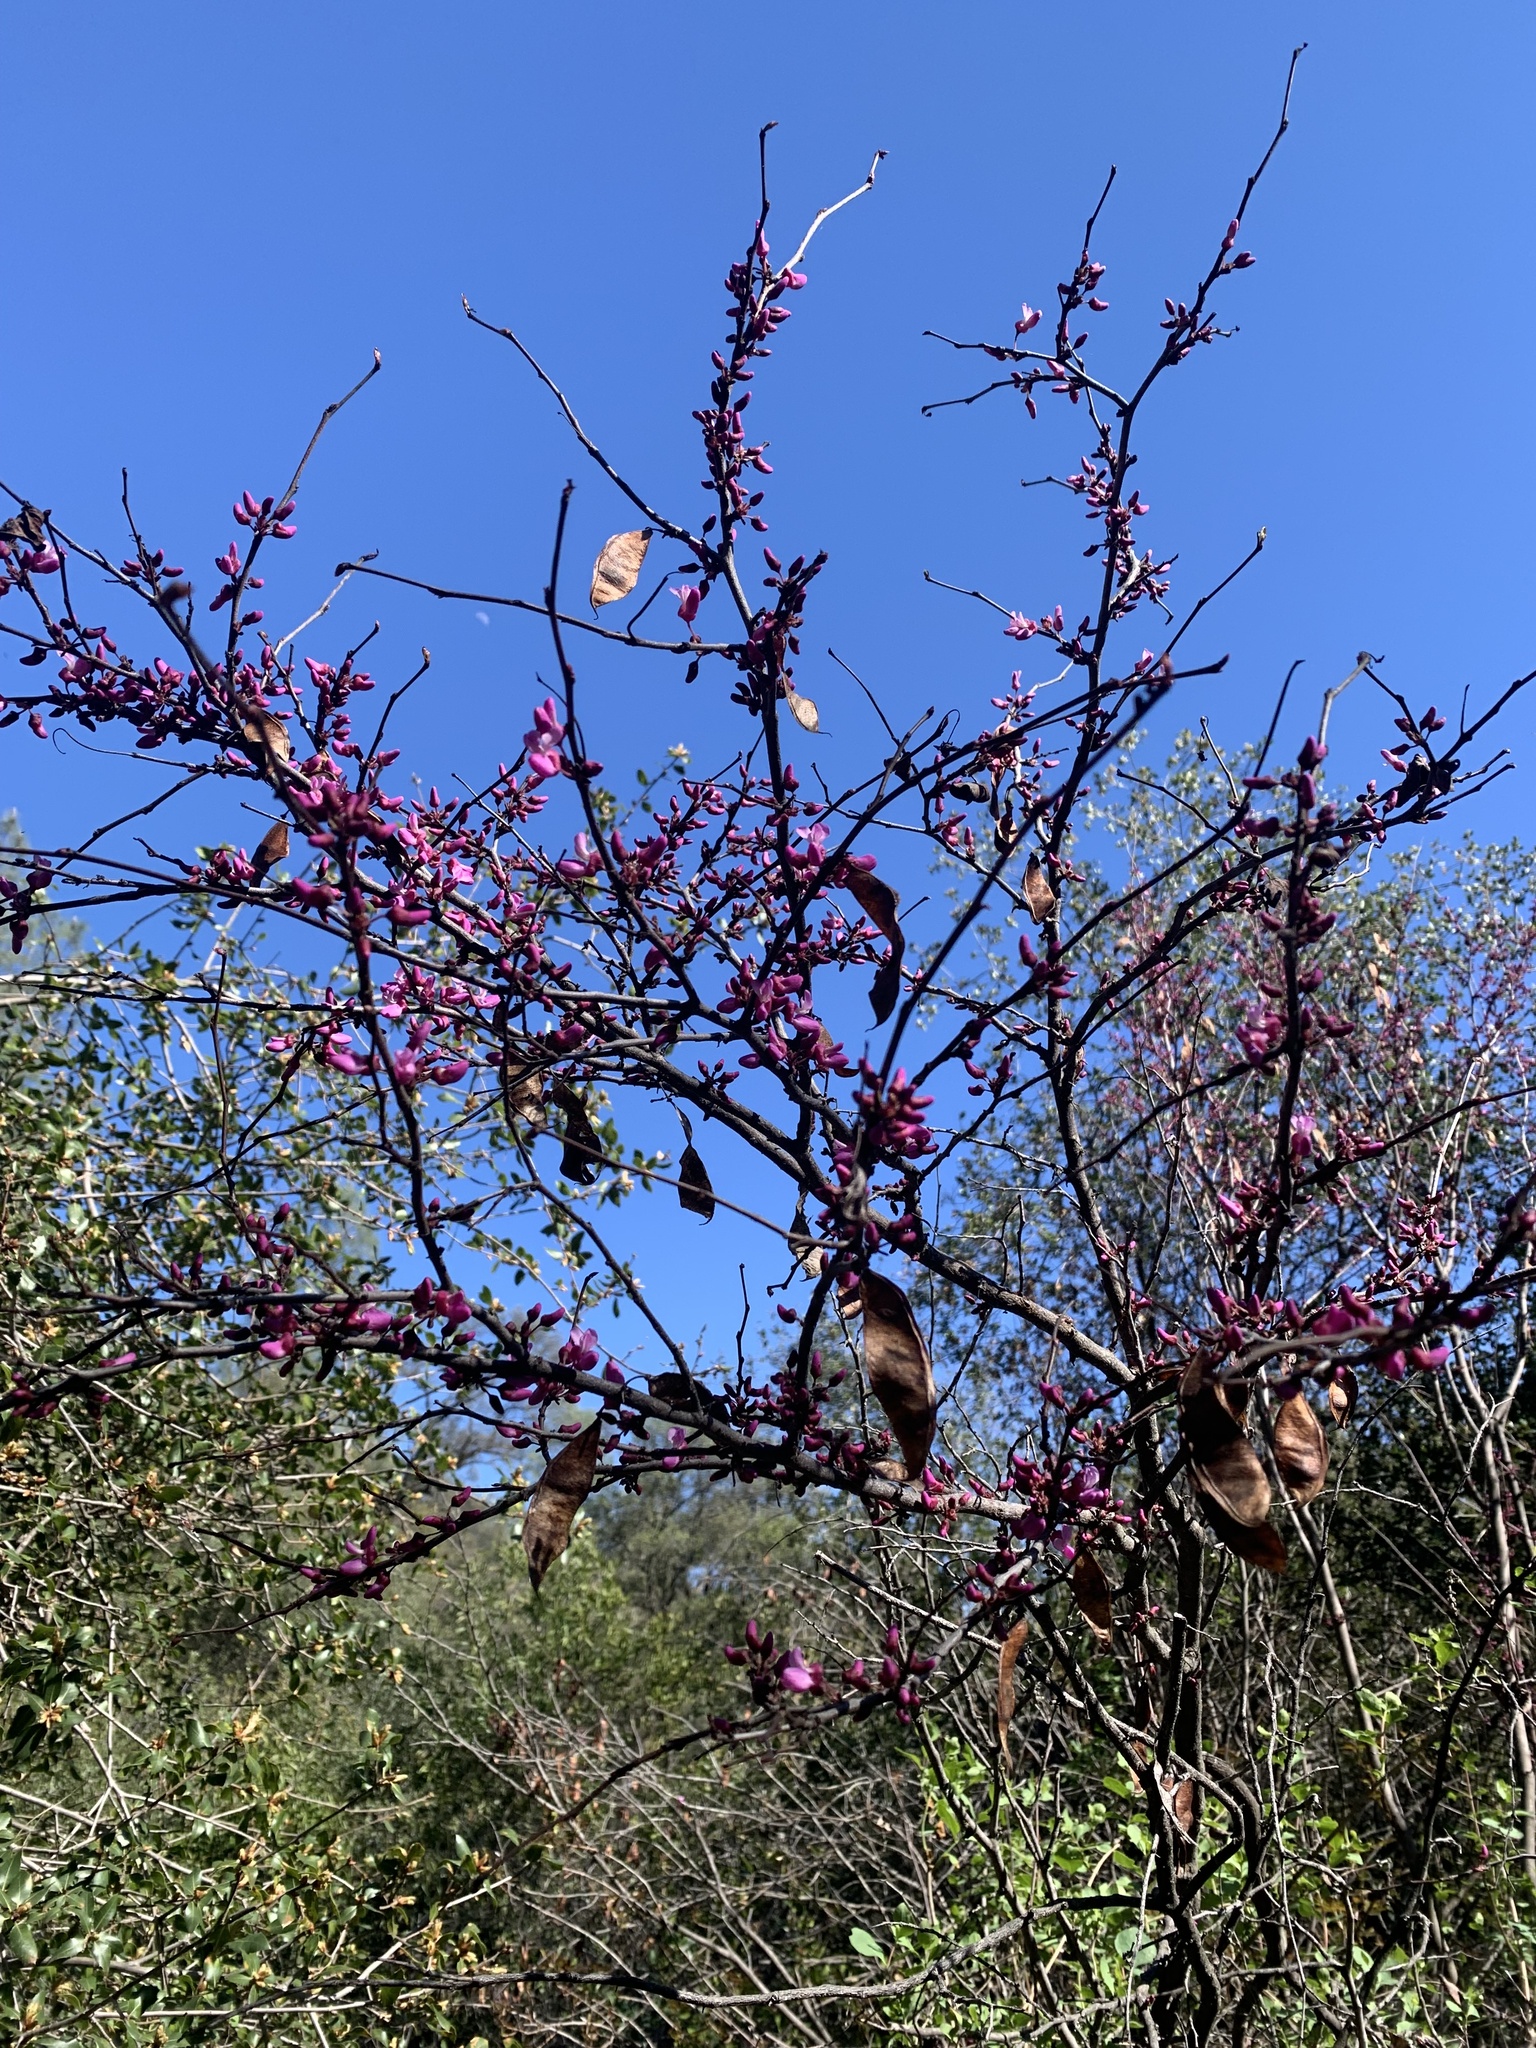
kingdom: Plantae
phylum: Tracheophyta
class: Magnoliopsida
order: Fabales
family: Fabaceae
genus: Cercis
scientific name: Cercis occidentalis
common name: California redbud
